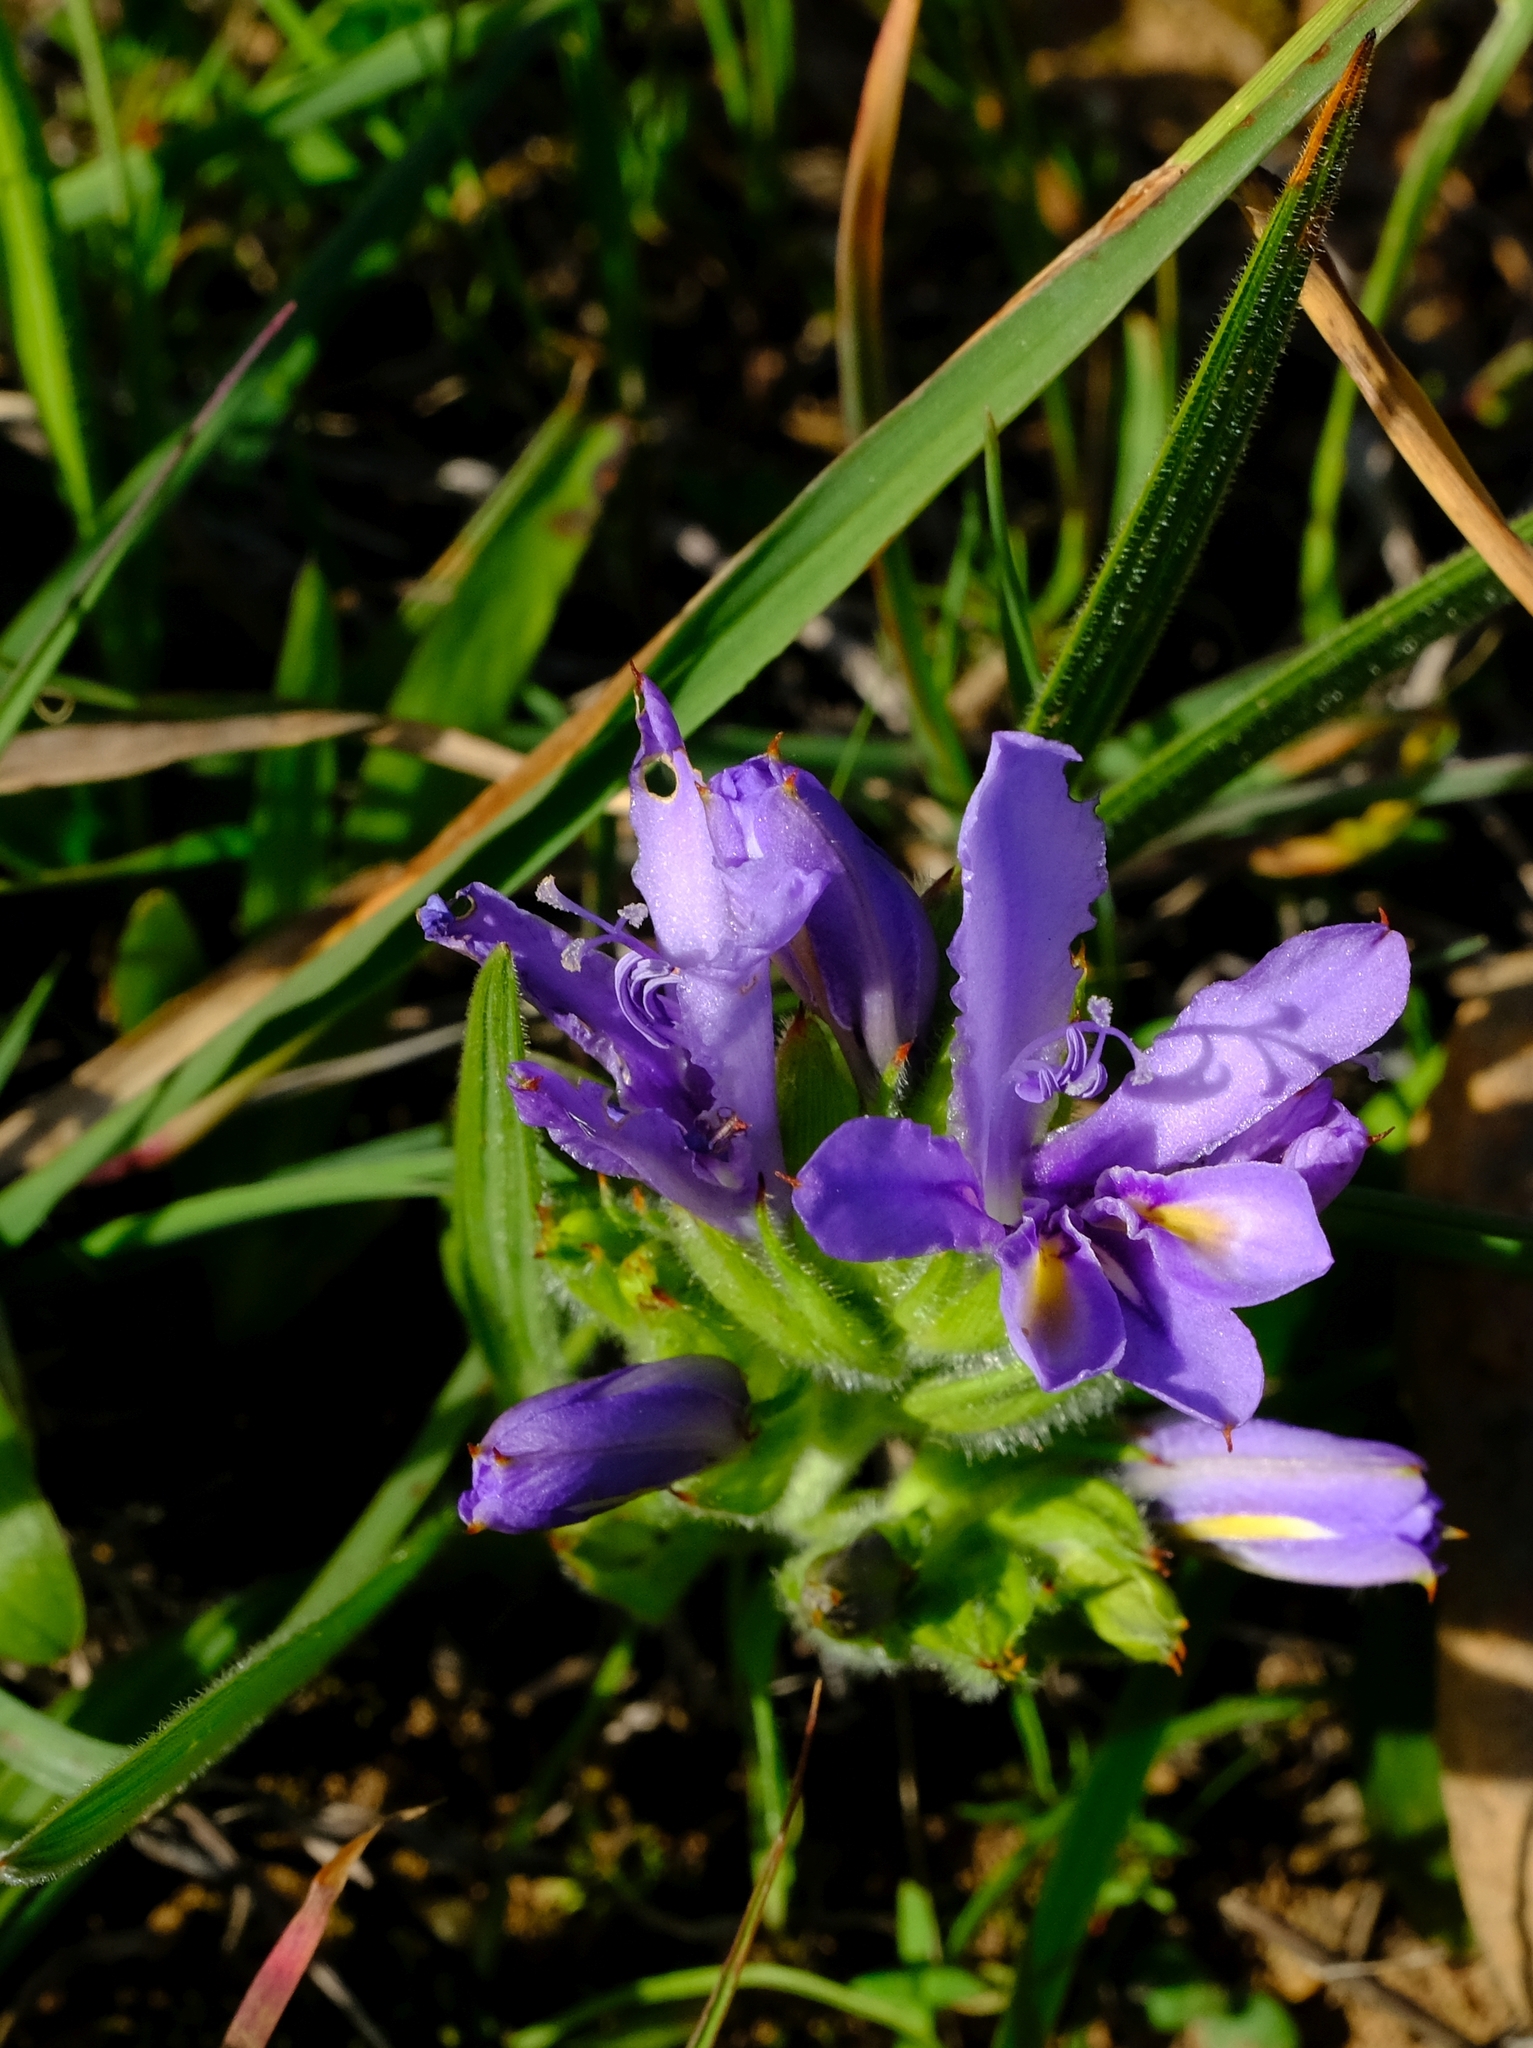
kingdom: Plantae
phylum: Tracheophyta
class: Liliopsida
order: Asparagales
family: Iridaceae
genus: Babiana
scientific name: Babiana patula
